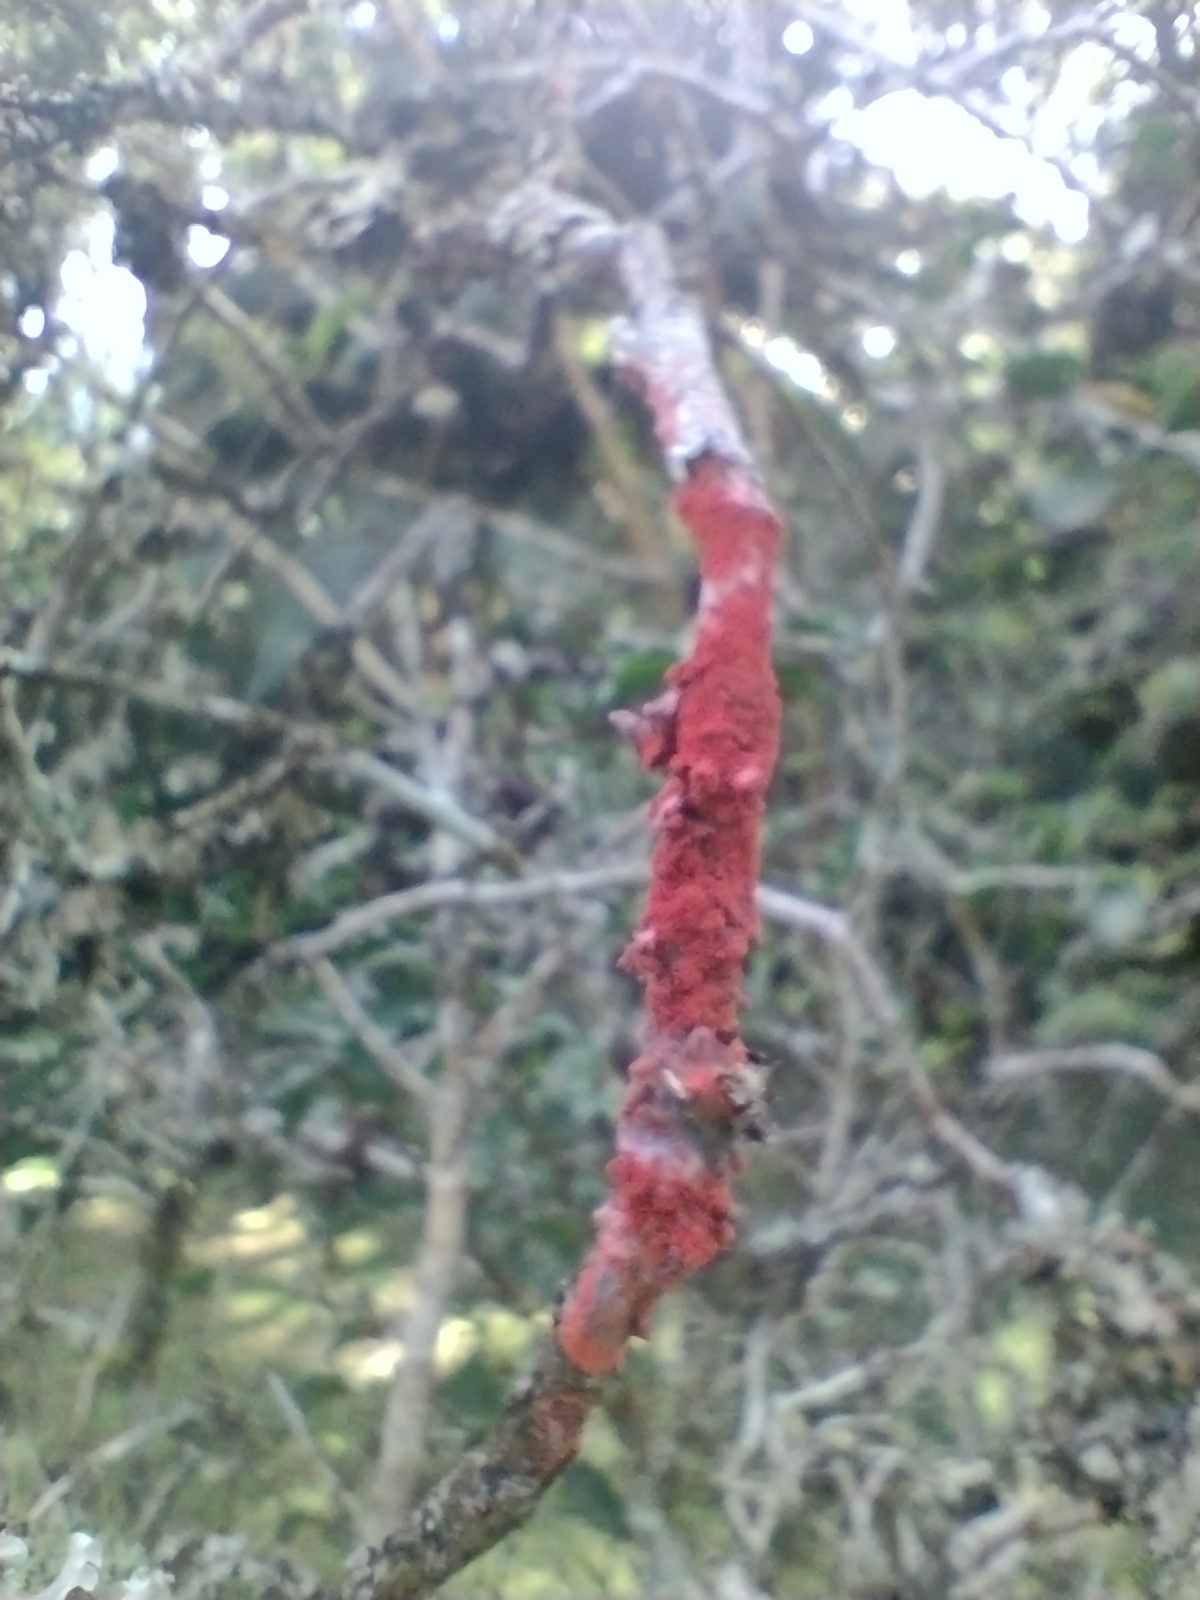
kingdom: Fungi
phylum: Ascomycota
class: Arthoniomycetes
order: Arthoniales
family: Arthoniaceae
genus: Herpothallon
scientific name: Herpothallon rubrocinctum
